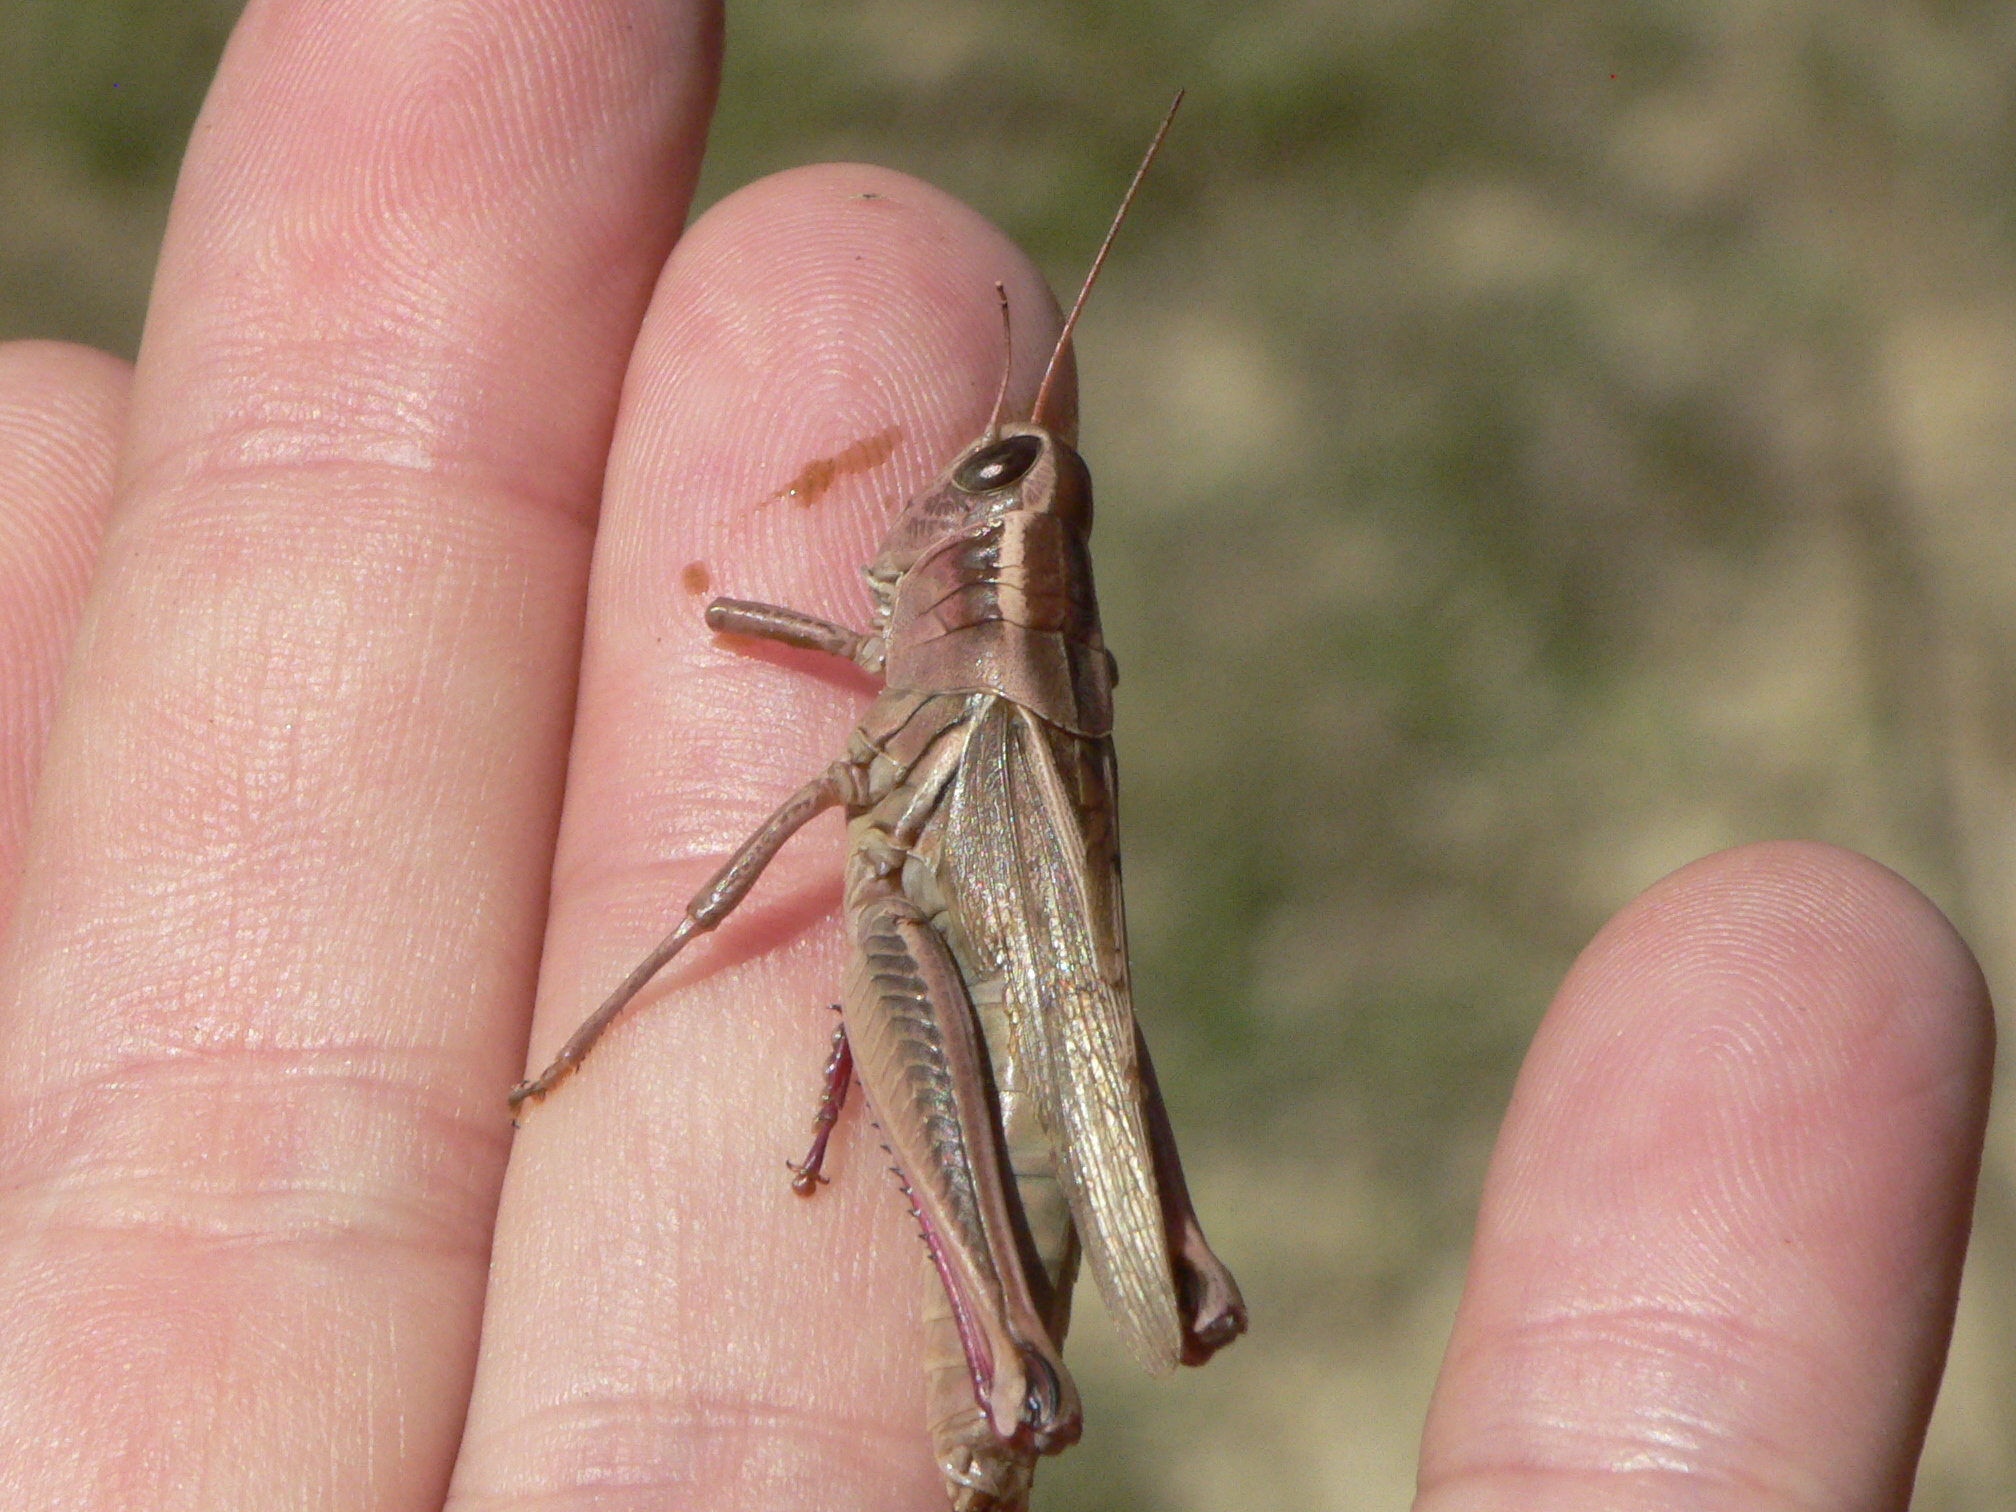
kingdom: Animalia
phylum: Arthropoda
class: Insecta
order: Orthoptera
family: Acrididae
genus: Melanoplus
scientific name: Melanoplus bivittatus
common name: Two-striped grasshopper
